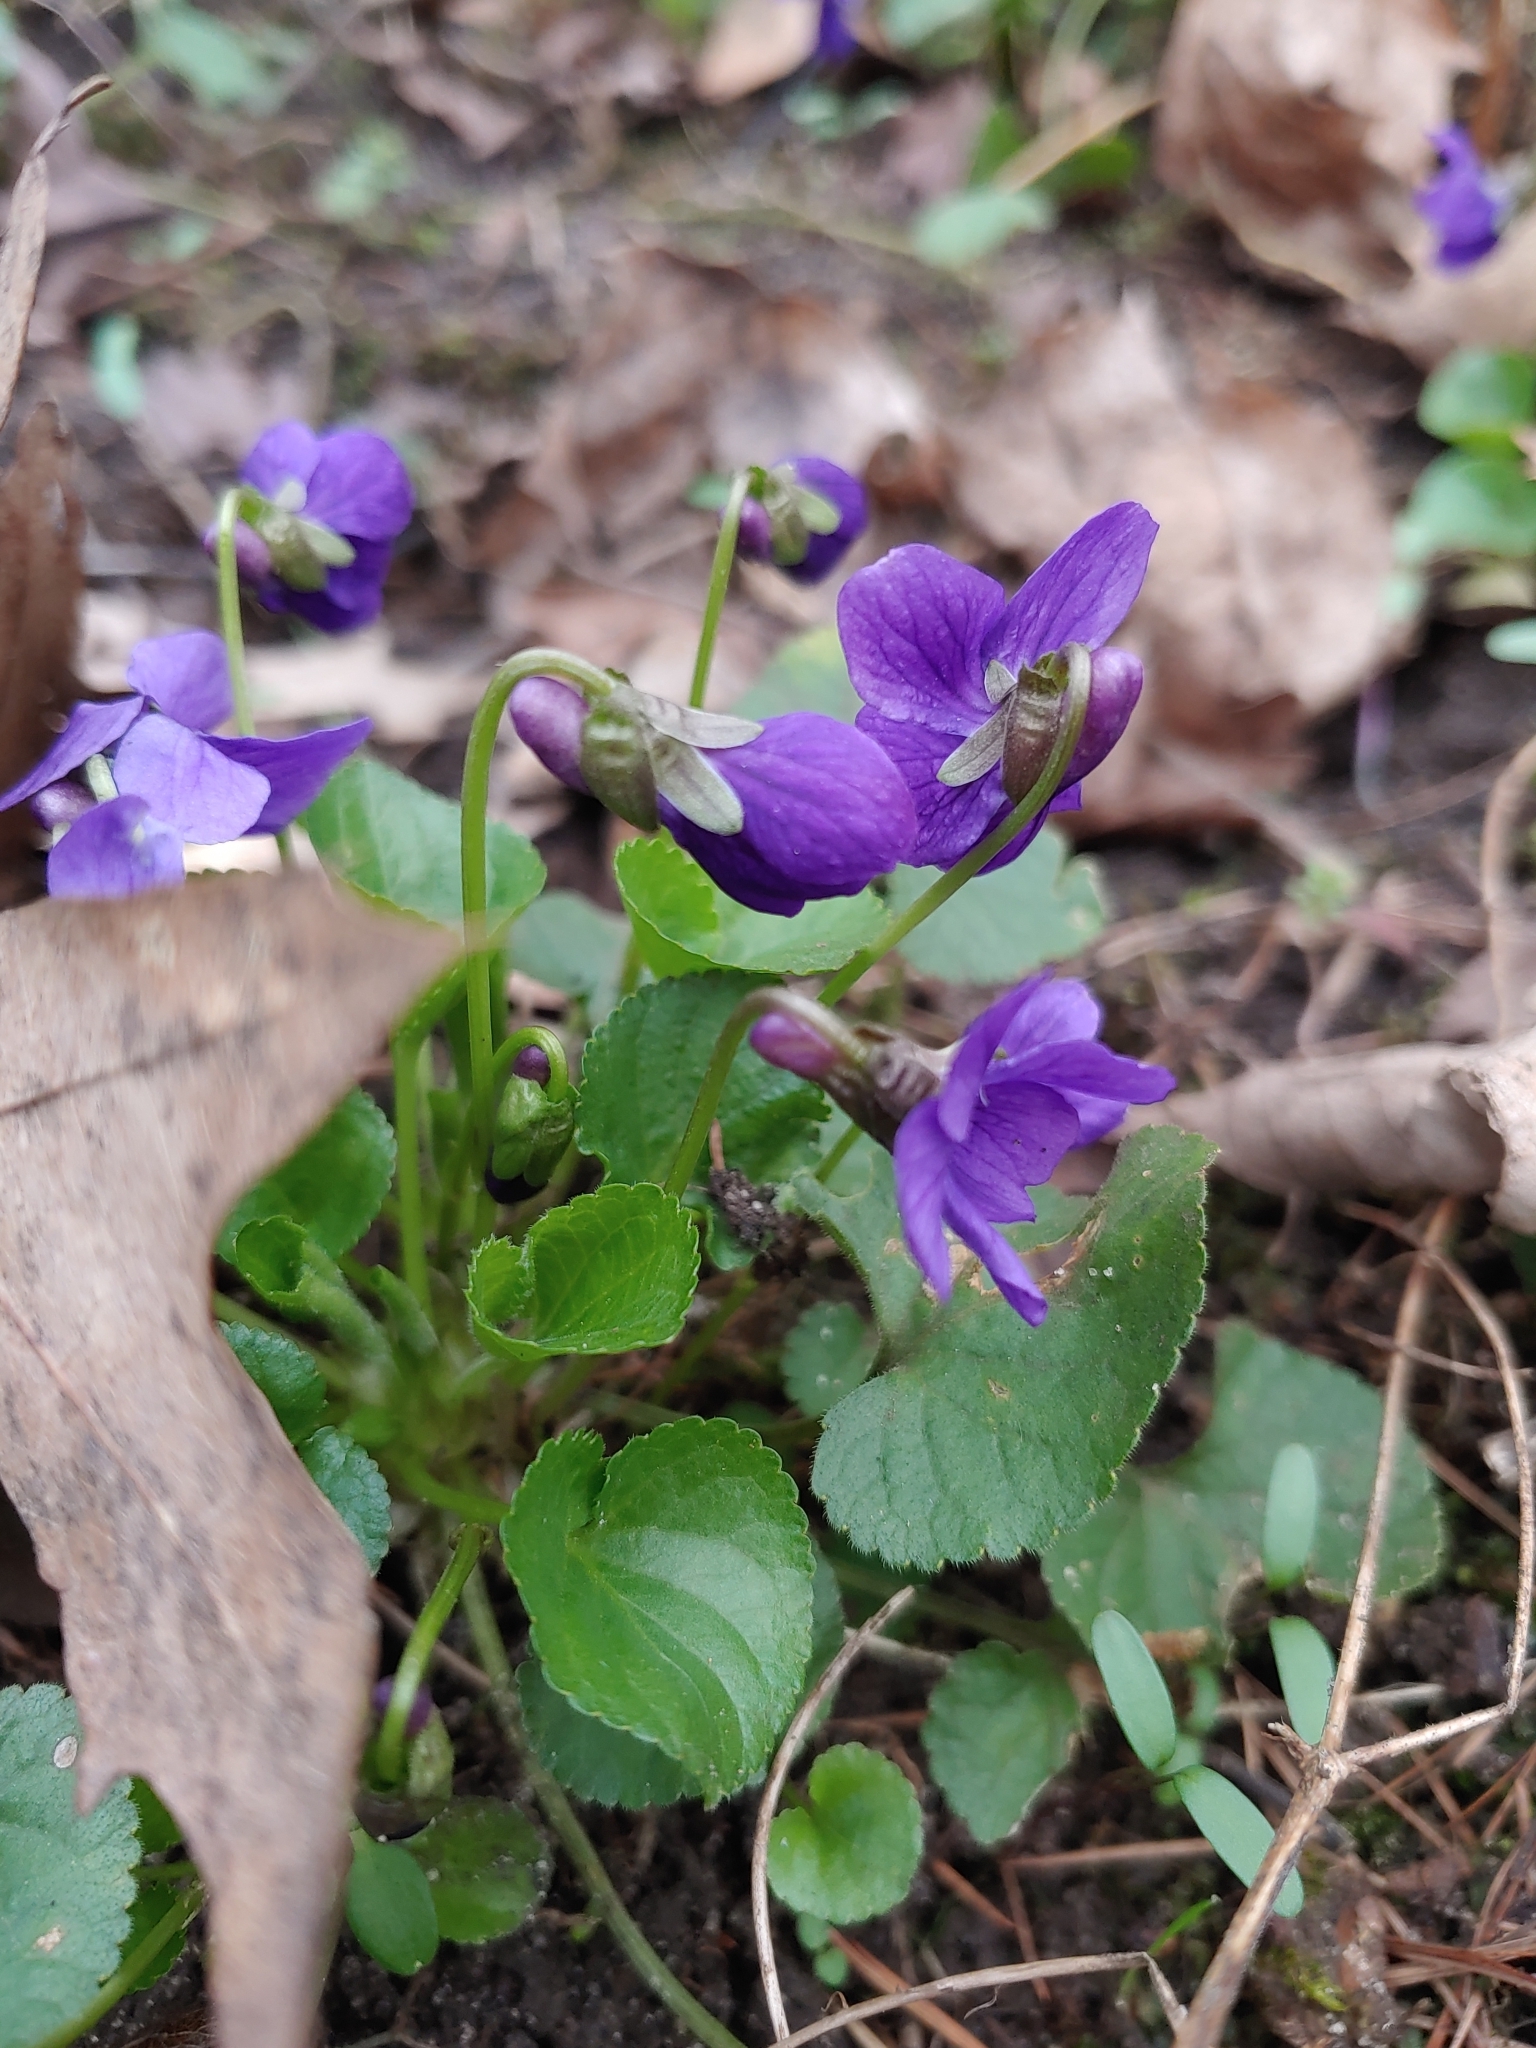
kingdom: Plantae
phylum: Tracheophyta
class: Magnoliopsida
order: Malpighiales
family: Violaceae
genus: Viola
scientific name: Viola odorata
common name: Sweet violet
